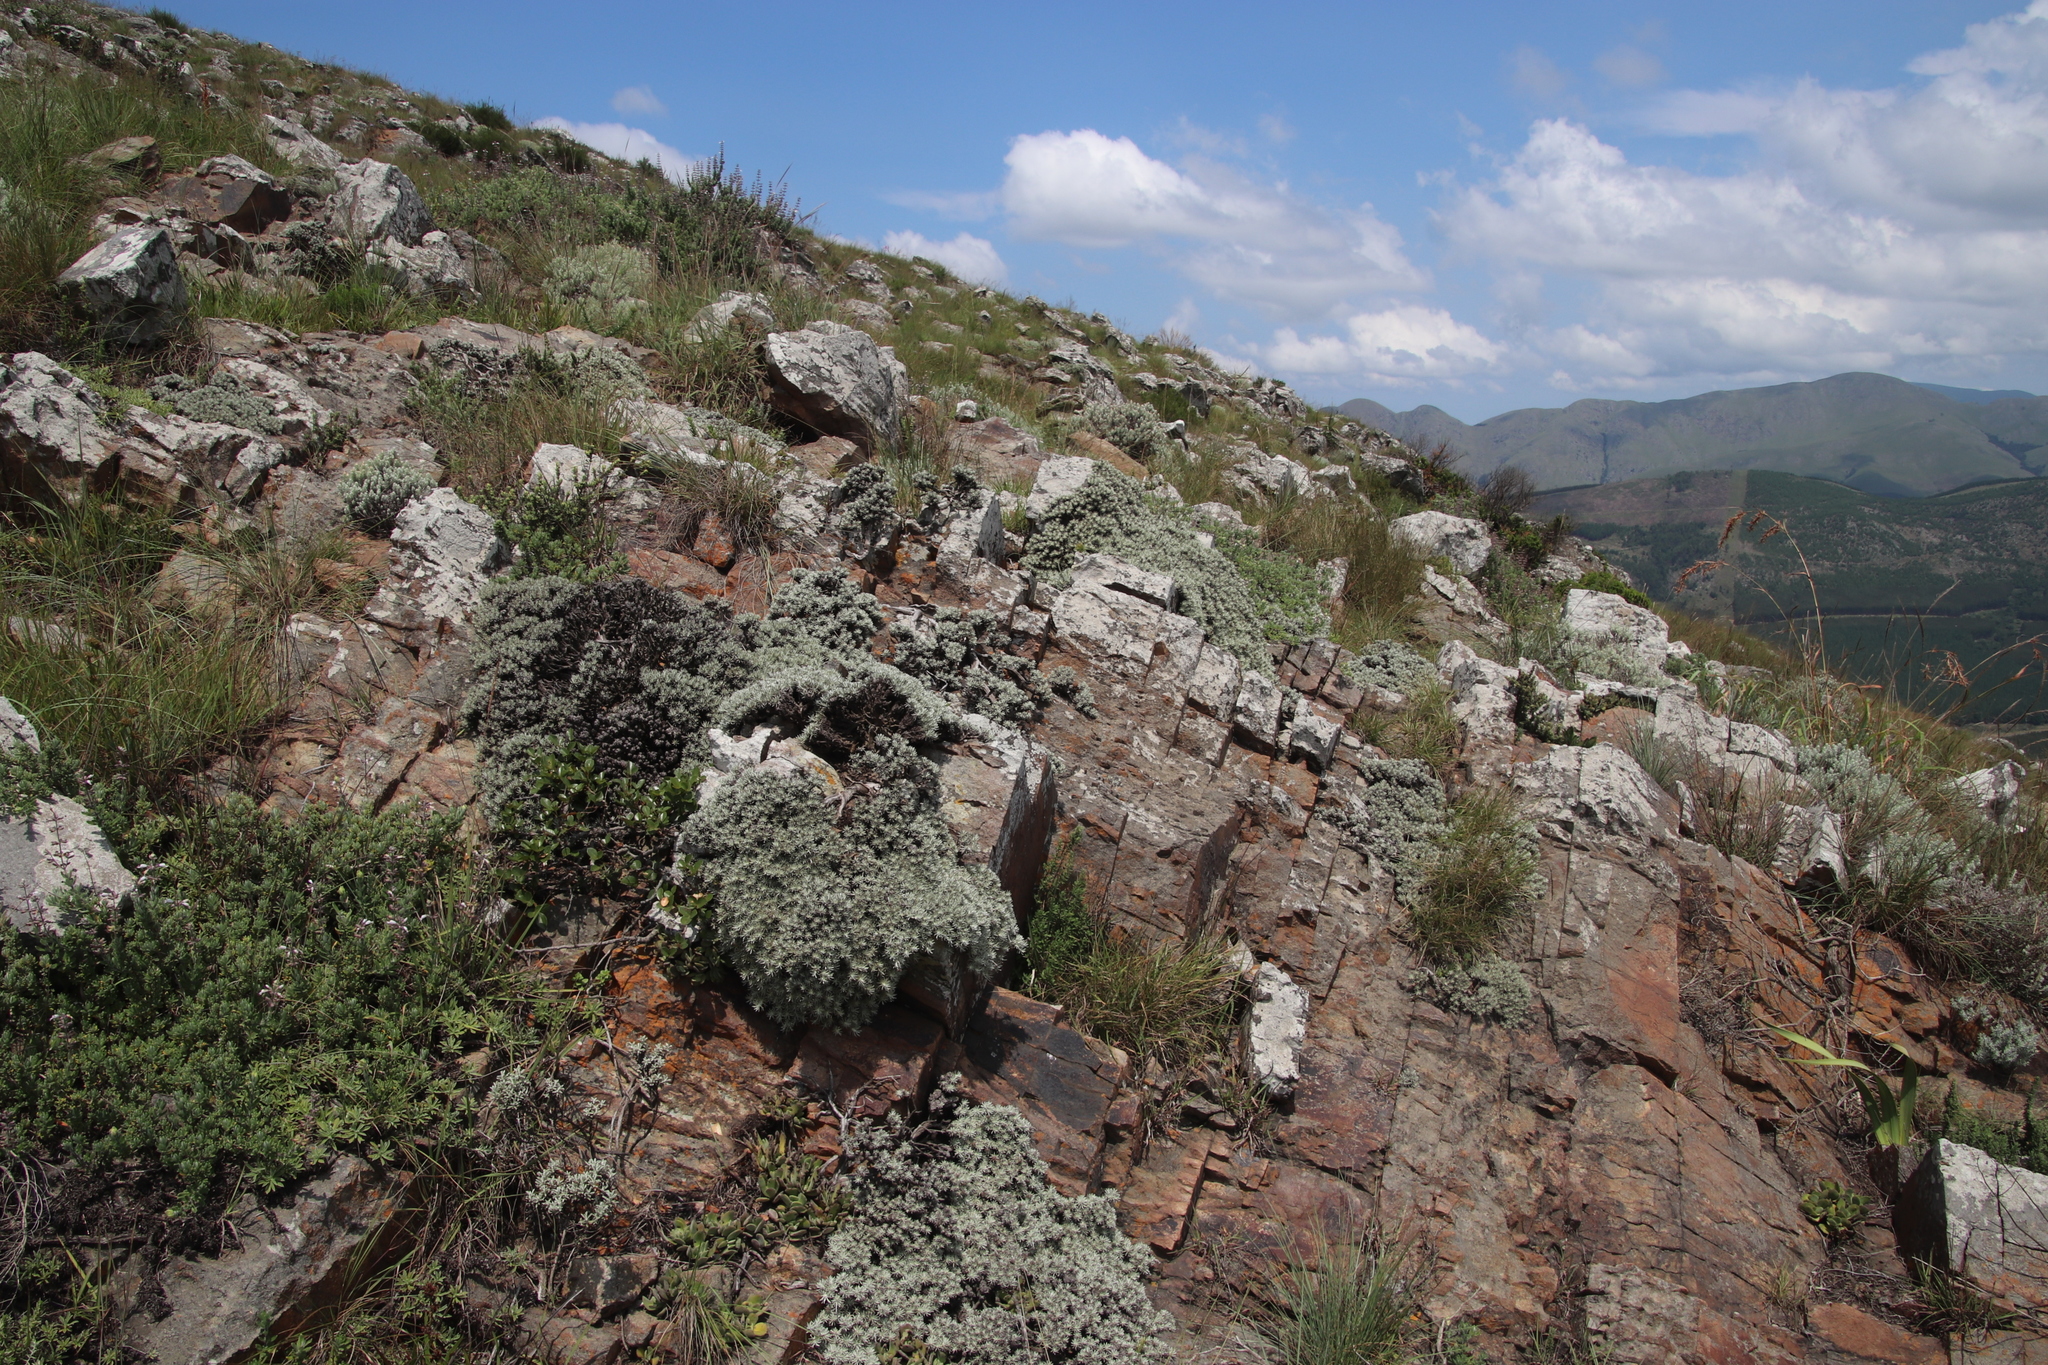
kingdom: Plantae
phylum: Tracheophyta
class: Magnoliopsida
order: Asterales
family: Asteraceae
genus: Helichrysum
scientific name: Helichrysum galpinii
